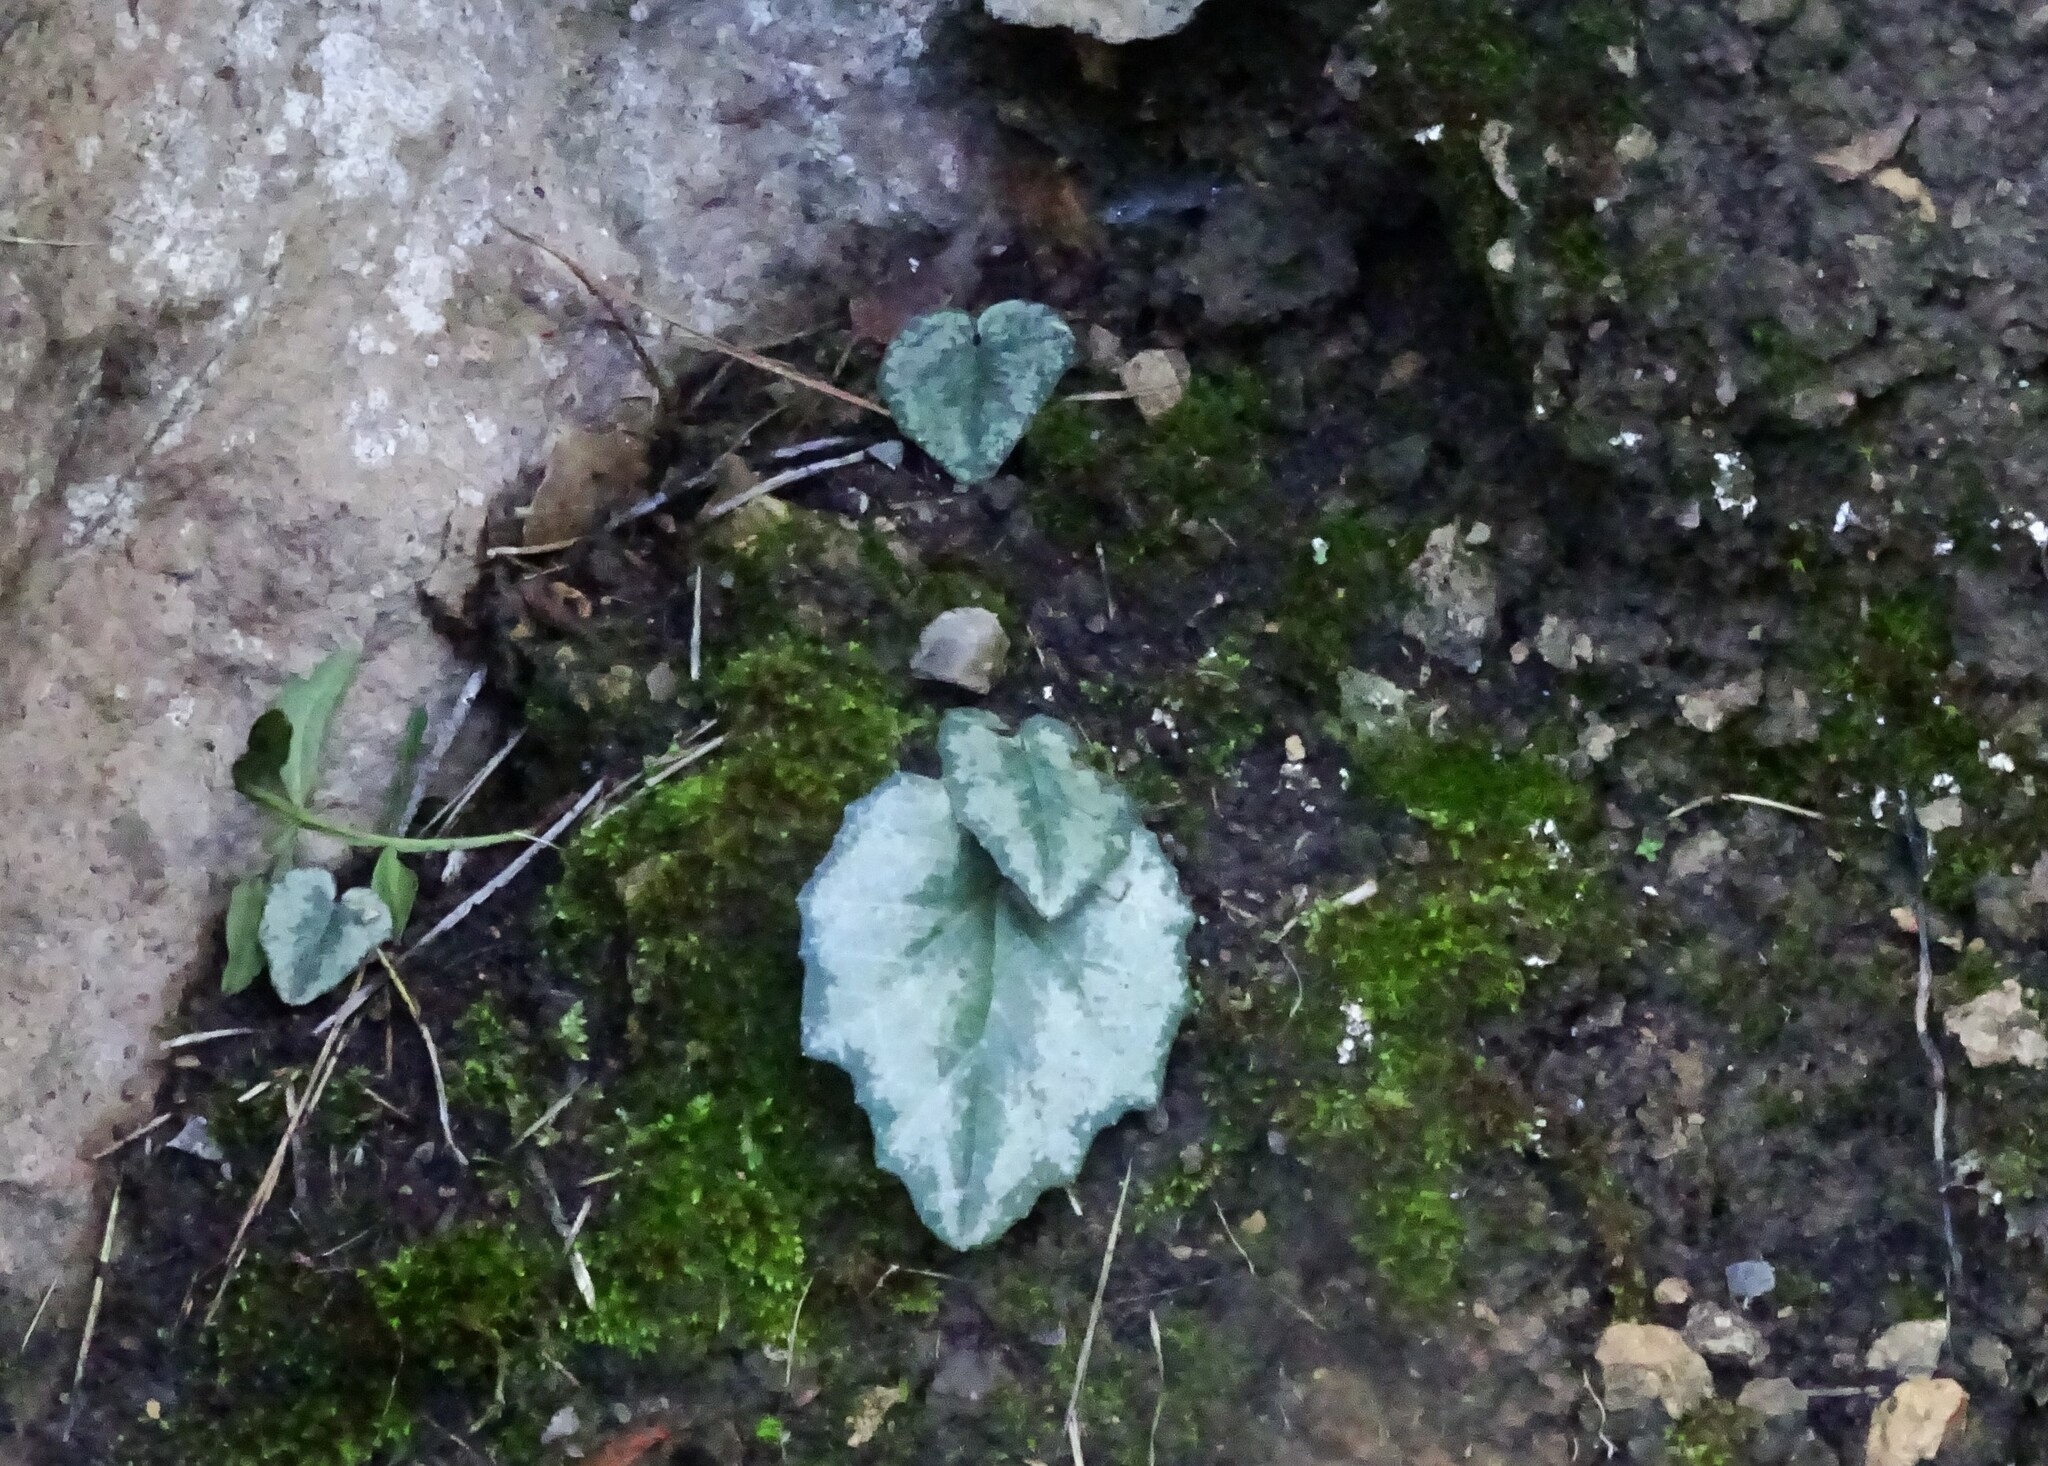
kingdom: Plantae
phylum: Tracheophyta
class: Magnoliopsida
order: Ericales
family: Primulaceae
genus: Cyclamen
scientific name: Cyclamen balearicum
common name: Majorca cyclamen
